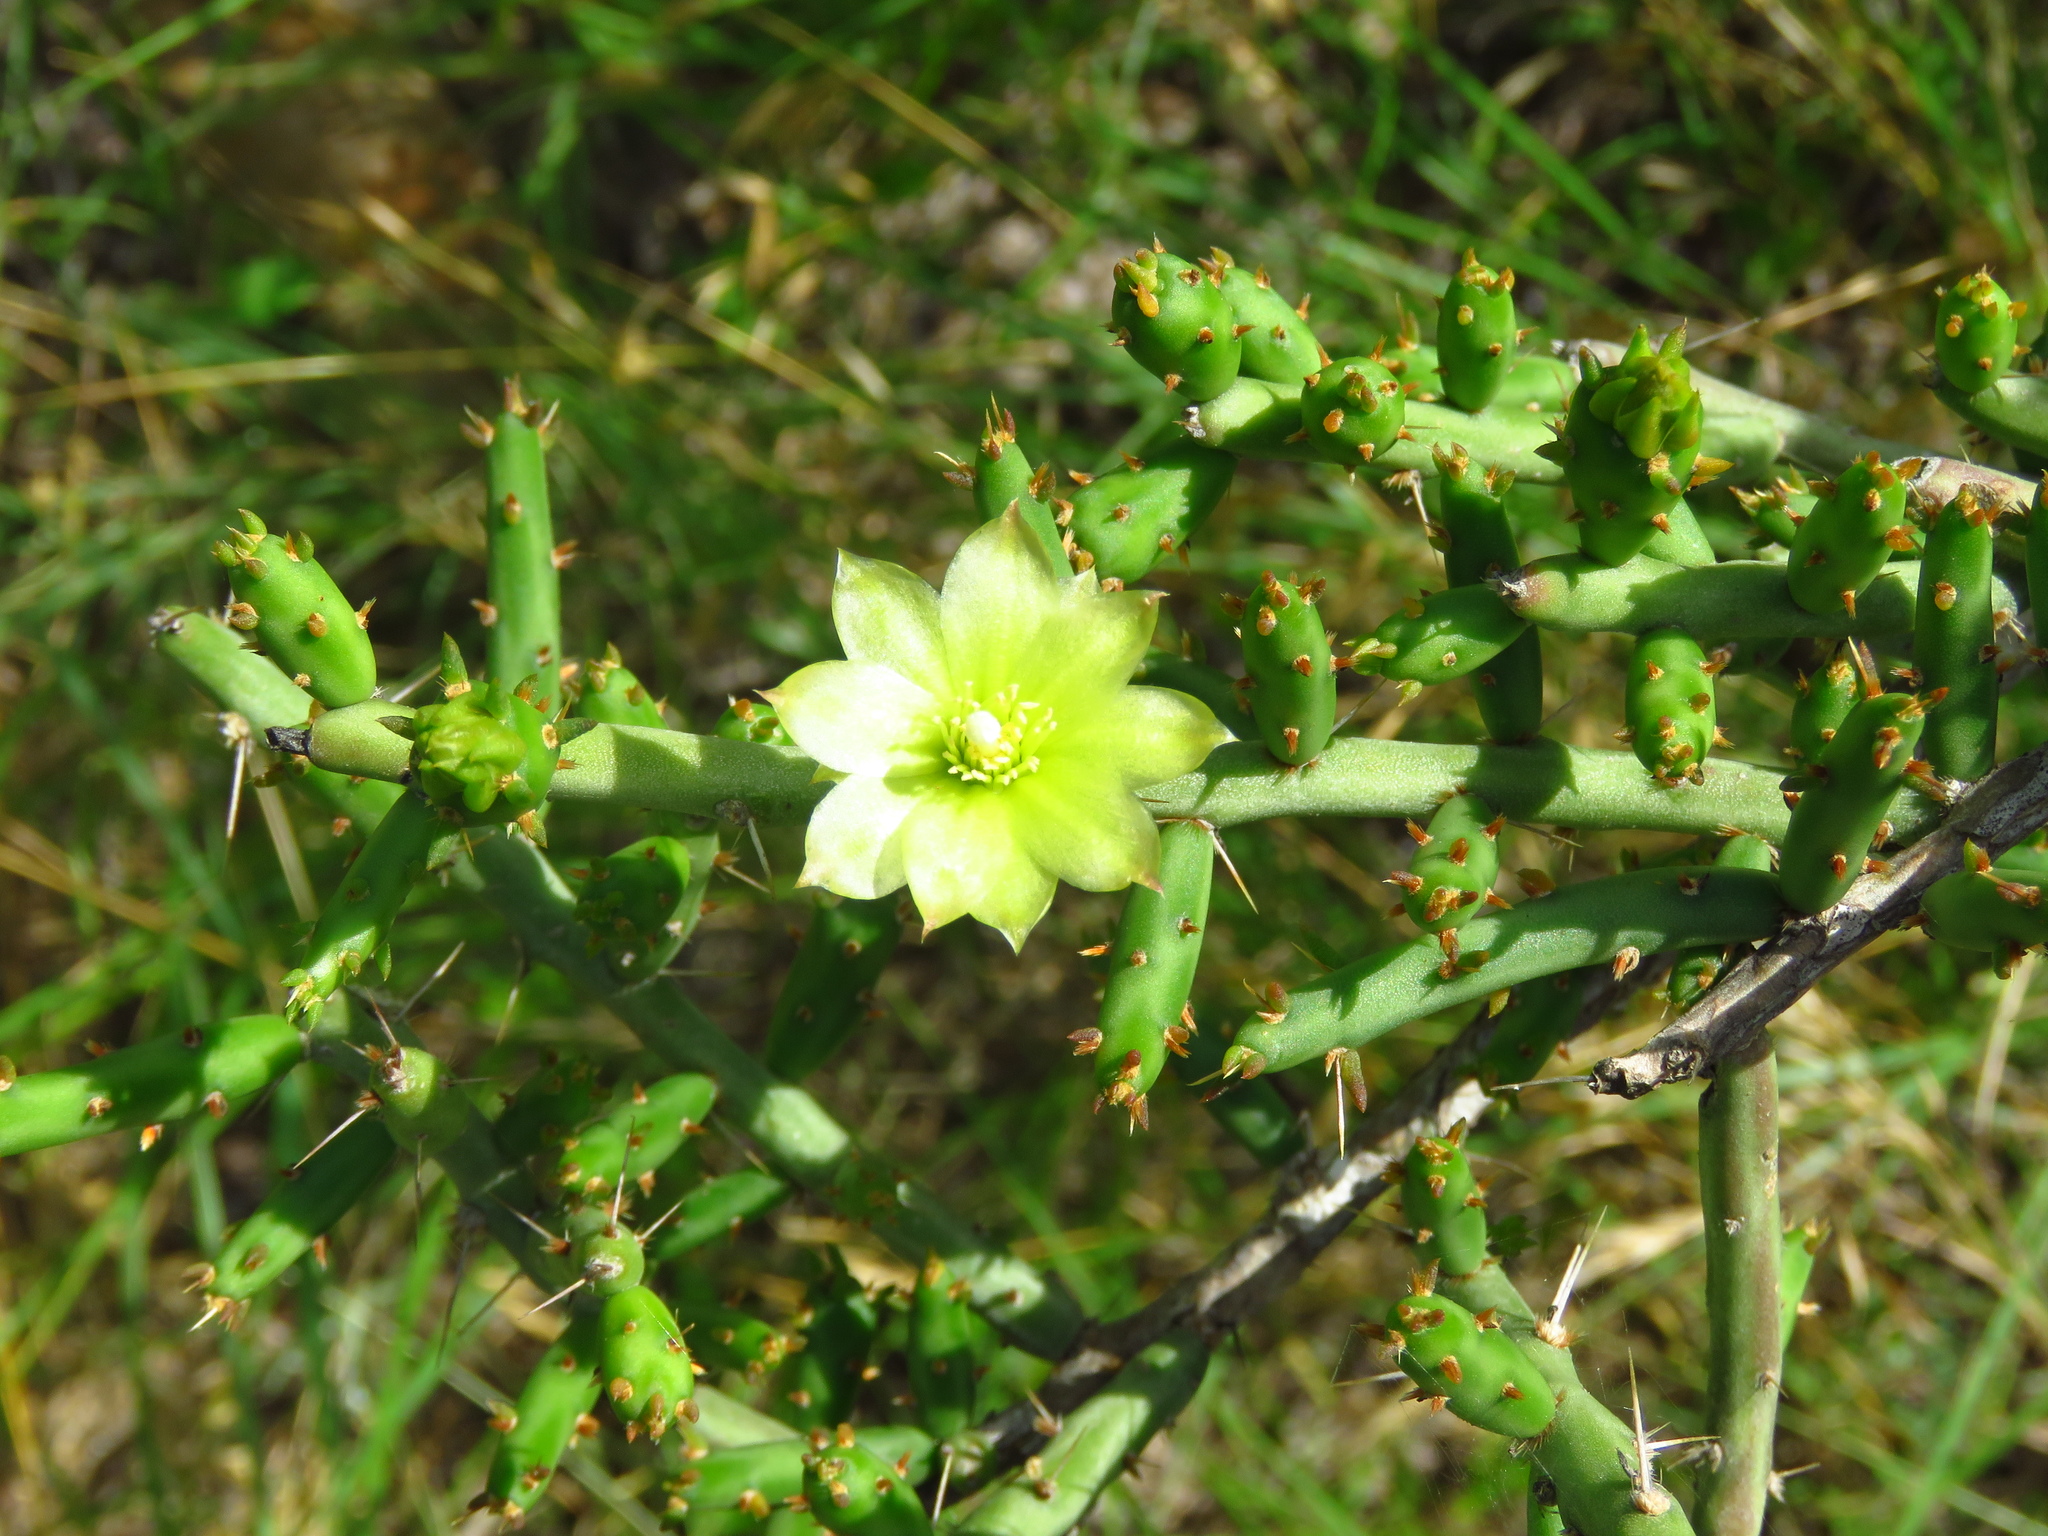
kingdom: Plantae
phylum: Tracheophyta
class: Magnoliopsida
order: Caryophyllales
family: Cactaceae
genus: Cylindropuntia
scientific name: Cylindropuntia leptocaulis
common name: Christmas cactus
